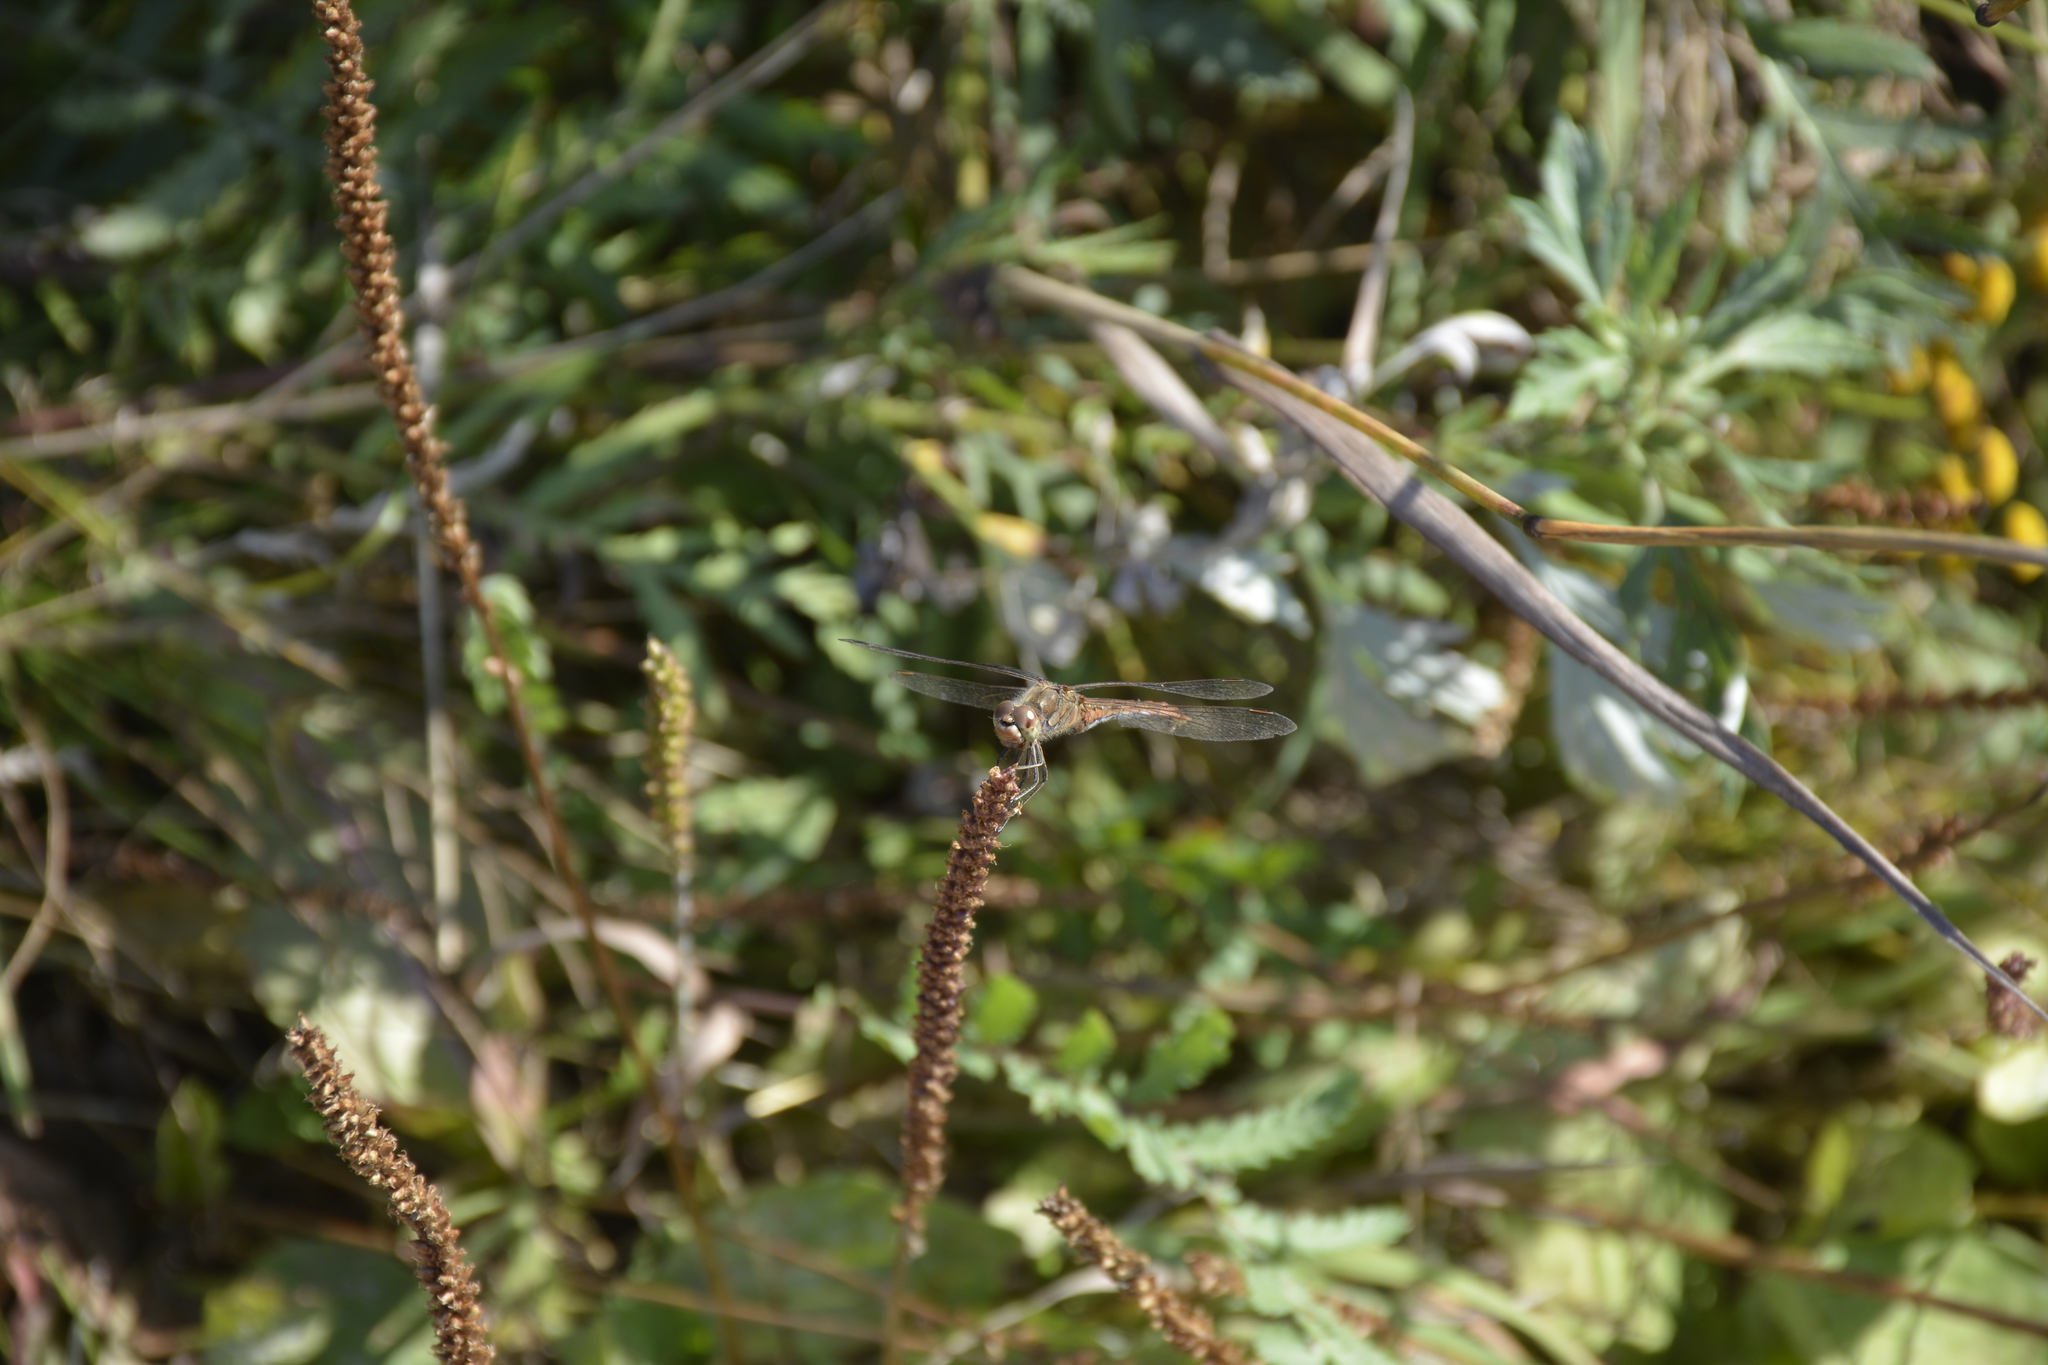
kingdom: Animalia
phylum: Arthropoda
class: Insecta
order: Odonata
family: Libellulidae
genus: Sympetrum
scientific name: Sympetrum vulgatum
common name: Vagrant darter
